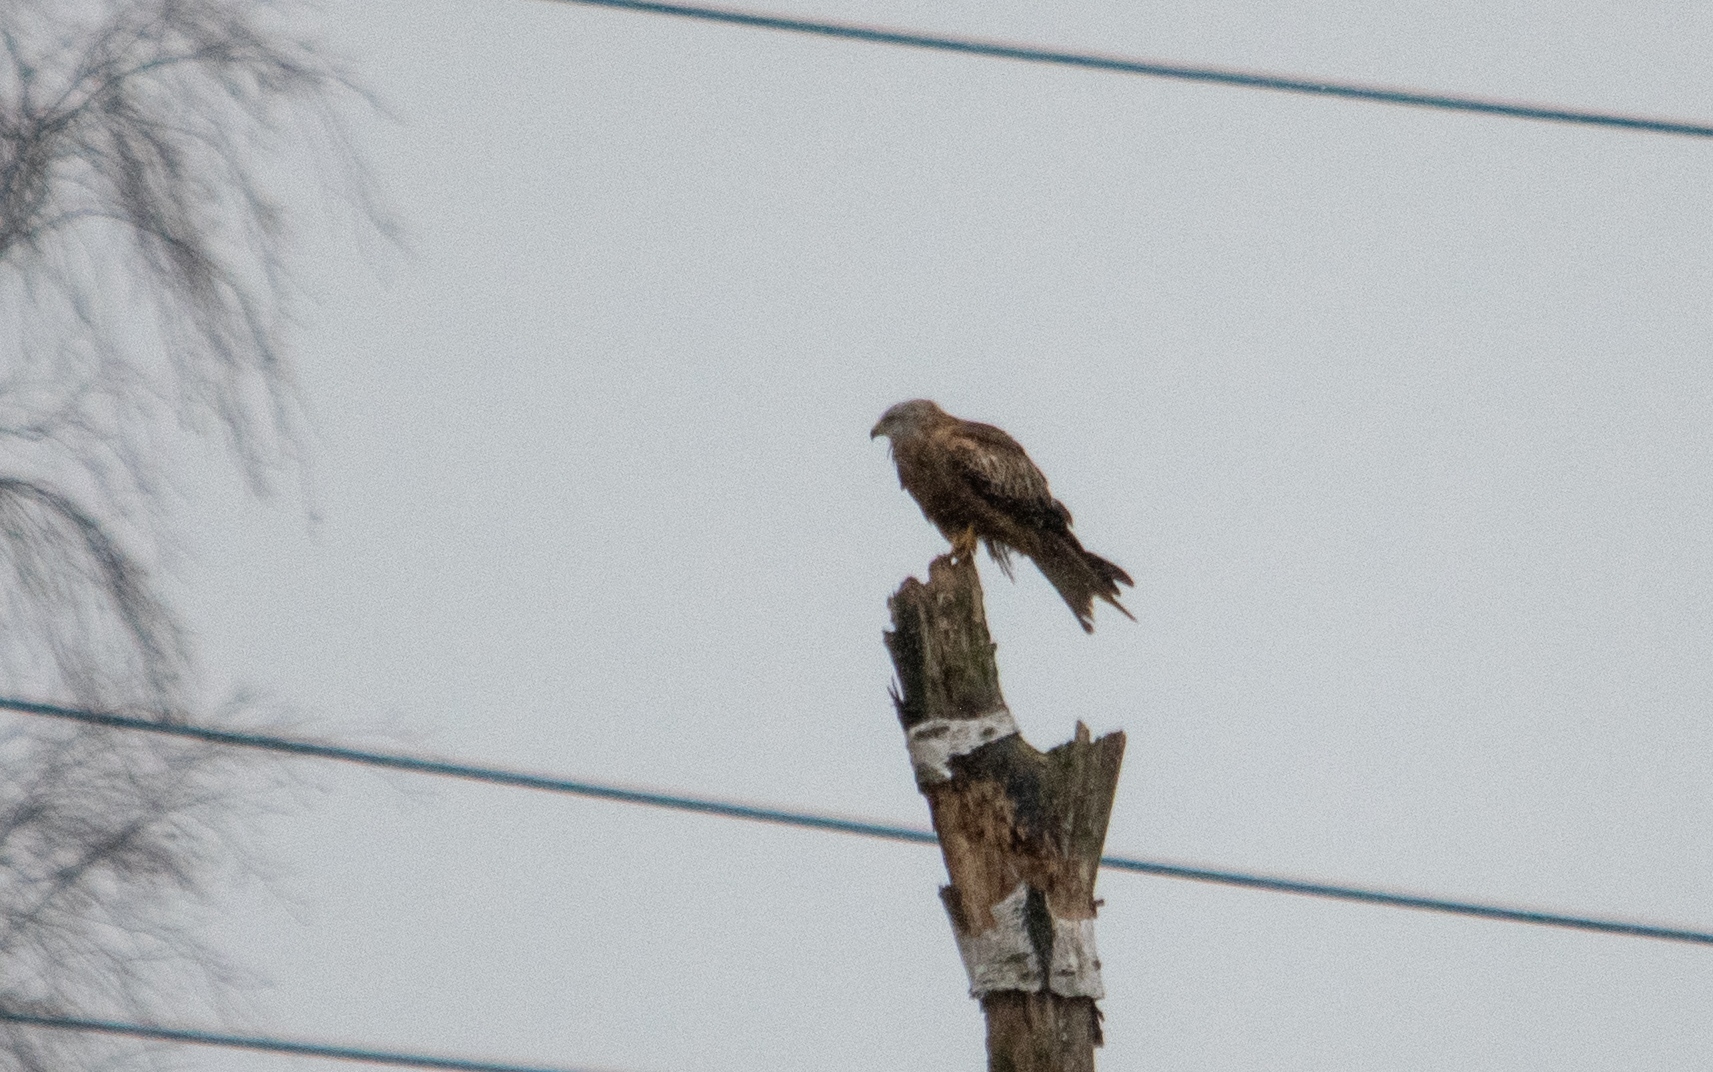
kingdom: Animalia
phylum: Chordata
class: Aves
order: Accipitriformes
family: Accipitridae
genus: Milvus
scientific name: Milvus milvus
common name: Red kite
